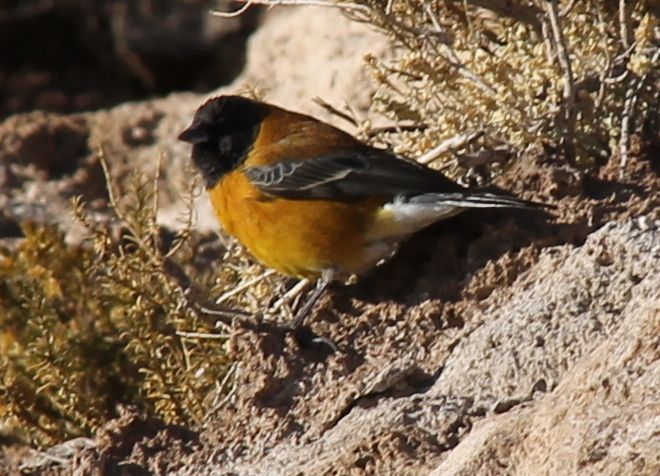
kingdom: Animalia
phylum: Chordata
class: Aves
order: Passeriformes
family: Thraupidae
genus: Phrygilus
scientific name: Phrygilus atriceps
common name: Black-hooded sierra finch
